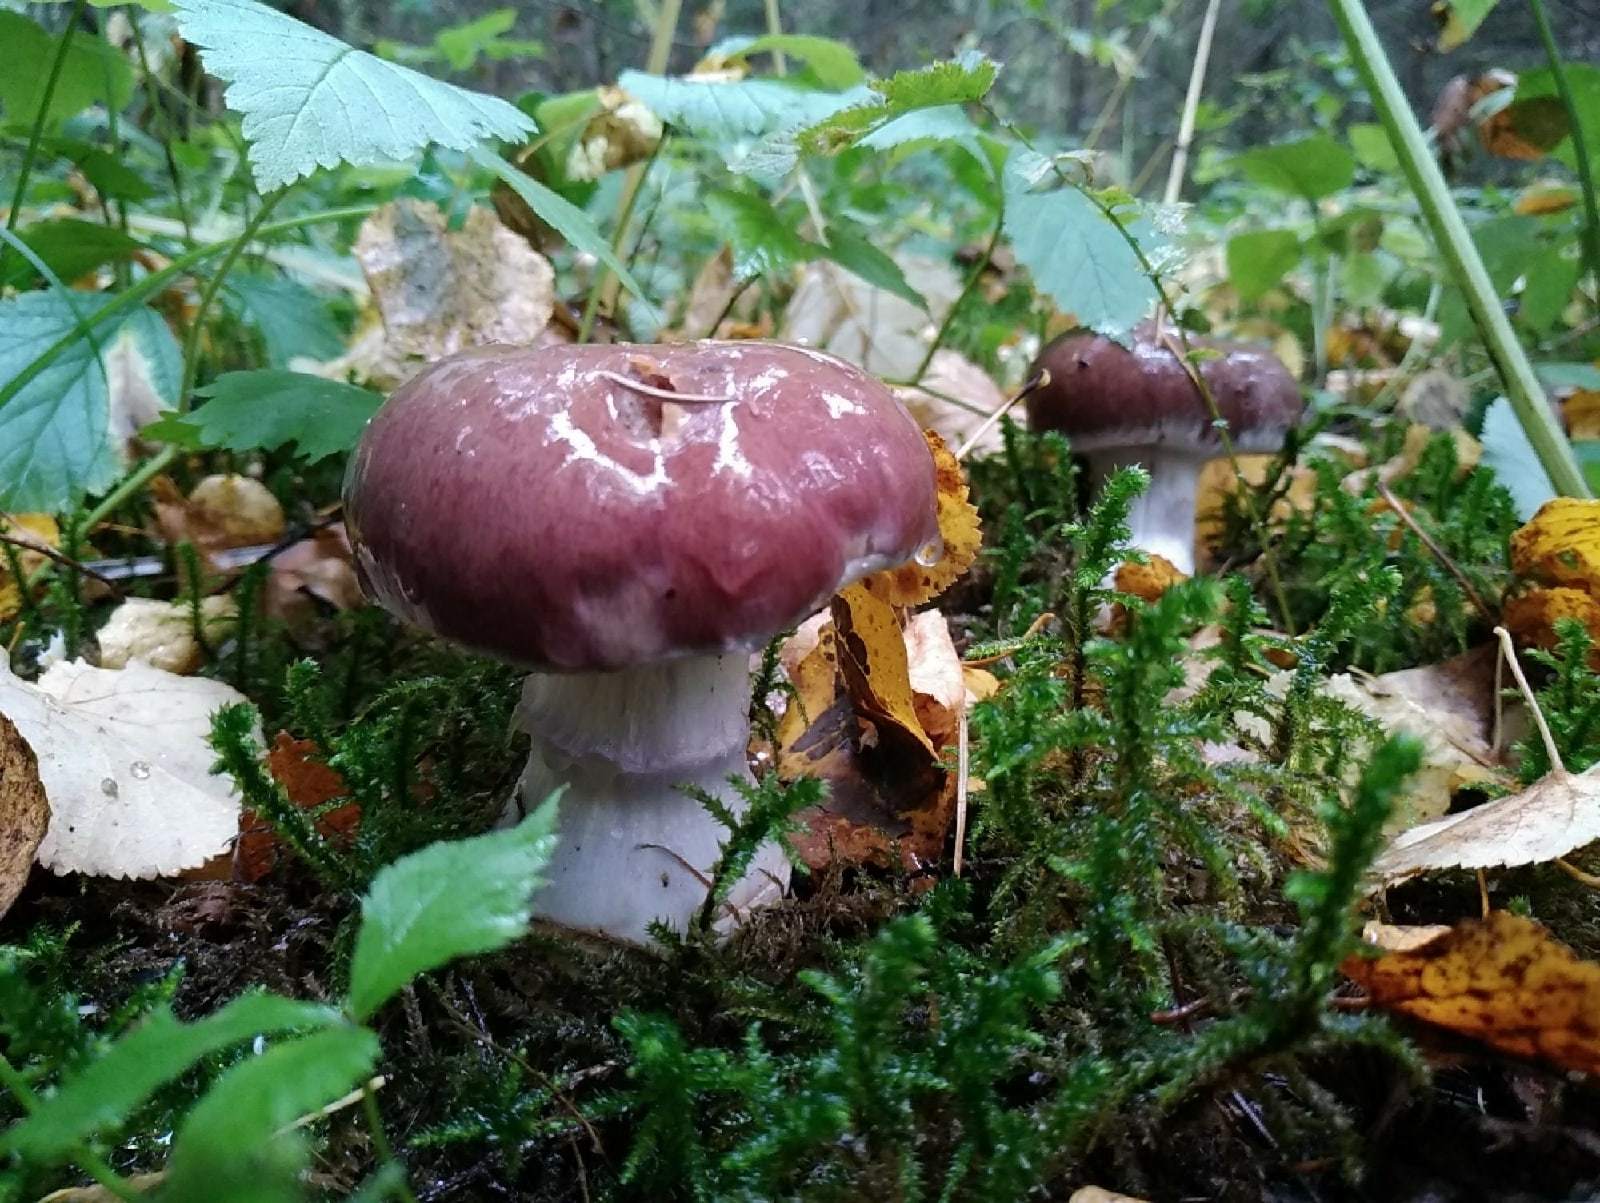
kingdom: Fungi
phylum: Basidiomycota
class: Agaricomycetes
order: Agaricales
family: Cortinariaceae
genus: Cortinarius
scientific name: Cortinarius praestans
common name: Goliath webcap
